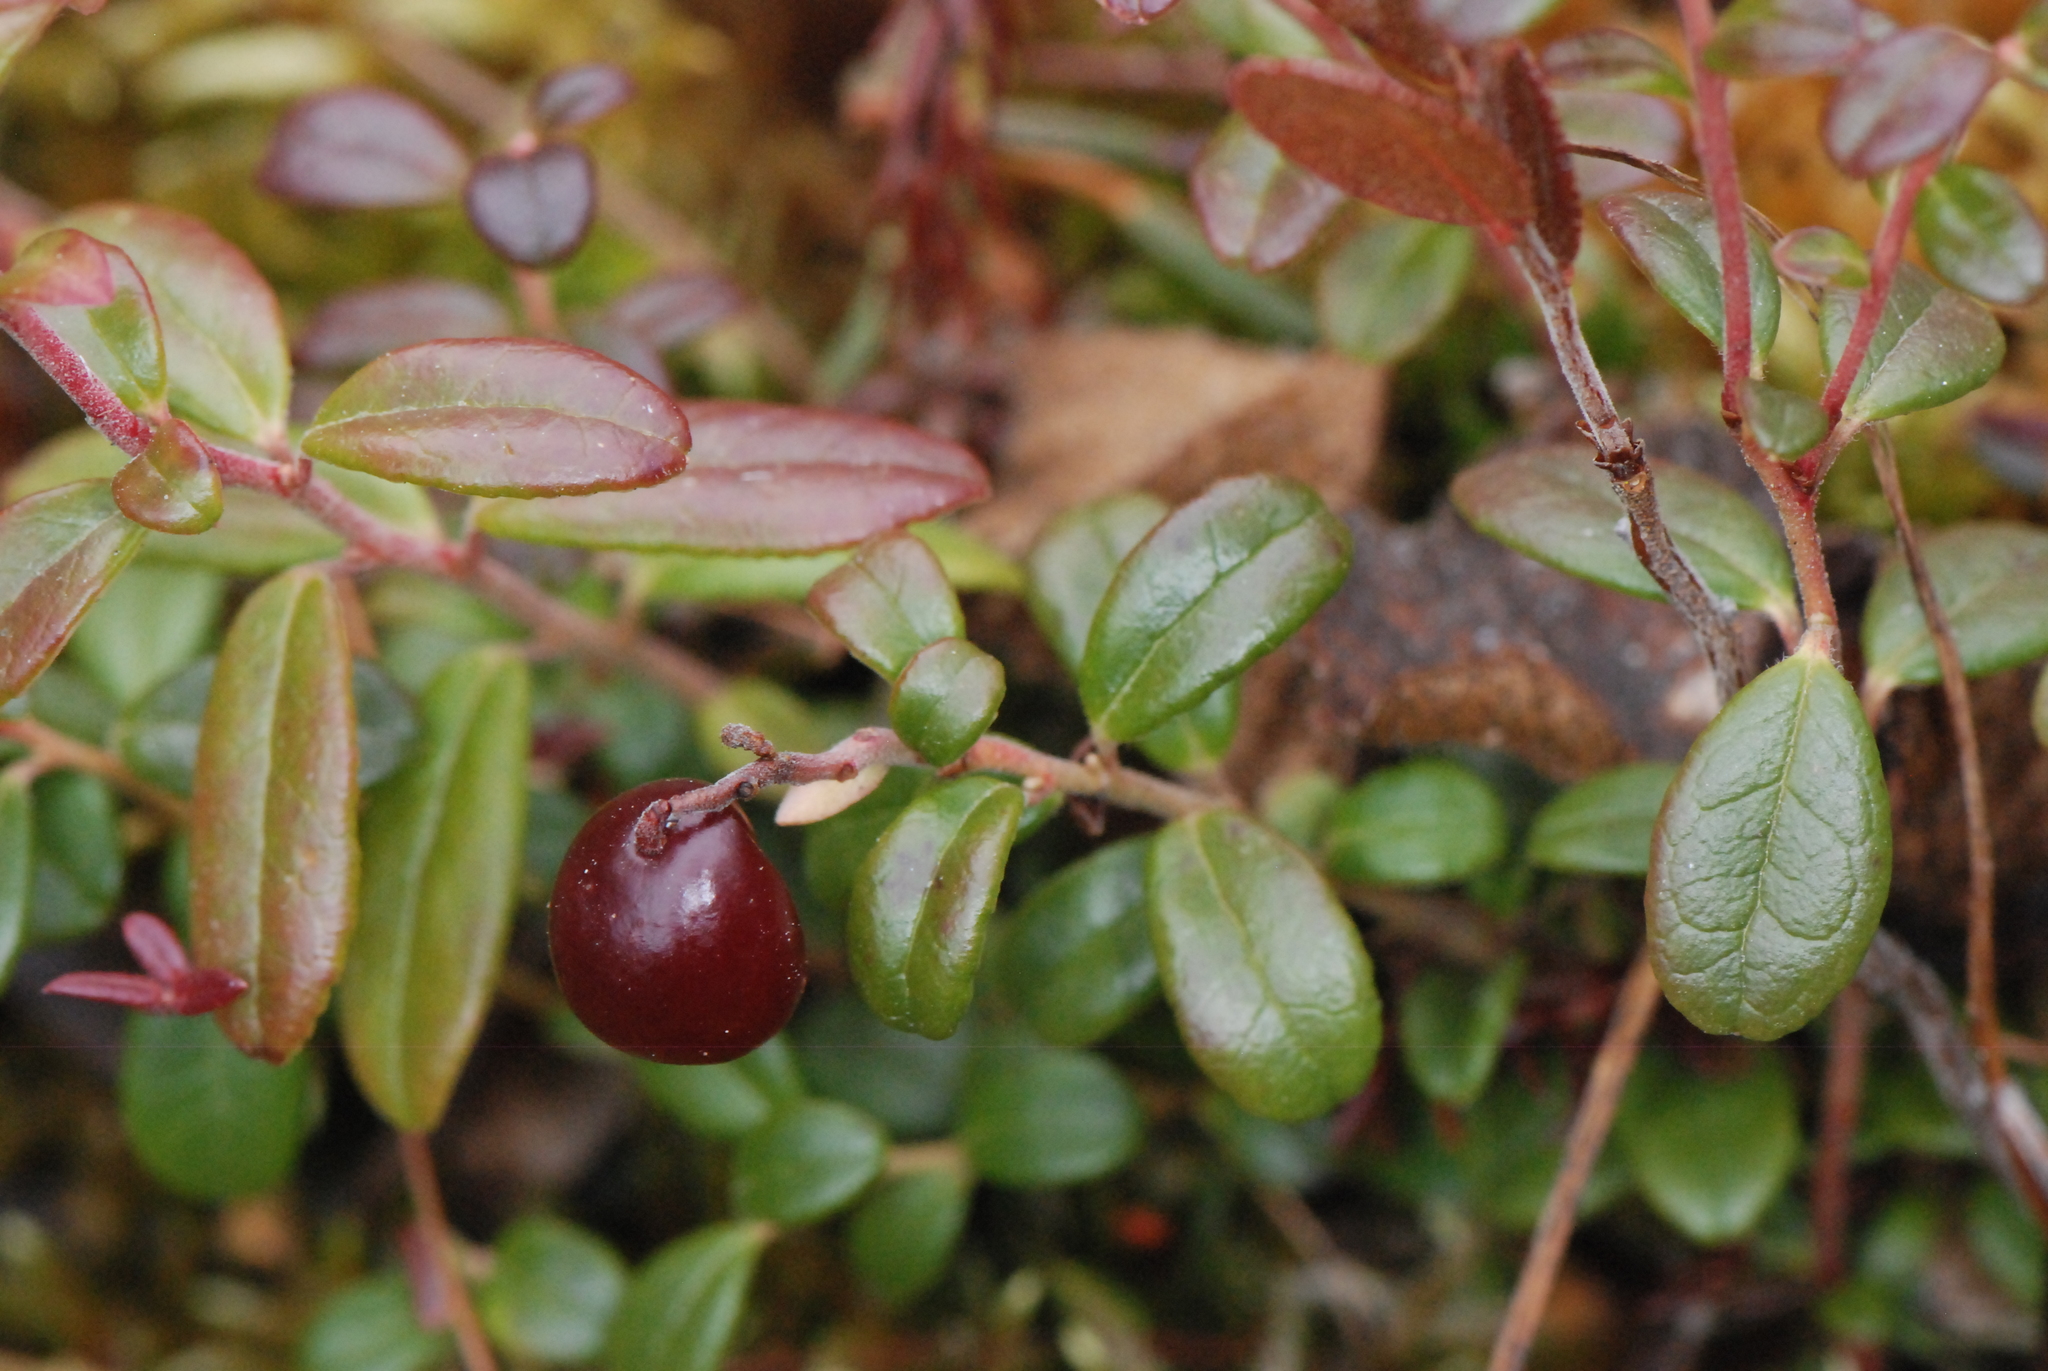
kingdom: Plantae
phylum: Tracheophyta
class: Magnoliopsida
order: Ericales
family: Ericaceae
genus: Vaccinium
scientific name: Vaccinium vitis-idaea
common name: Cowberry
